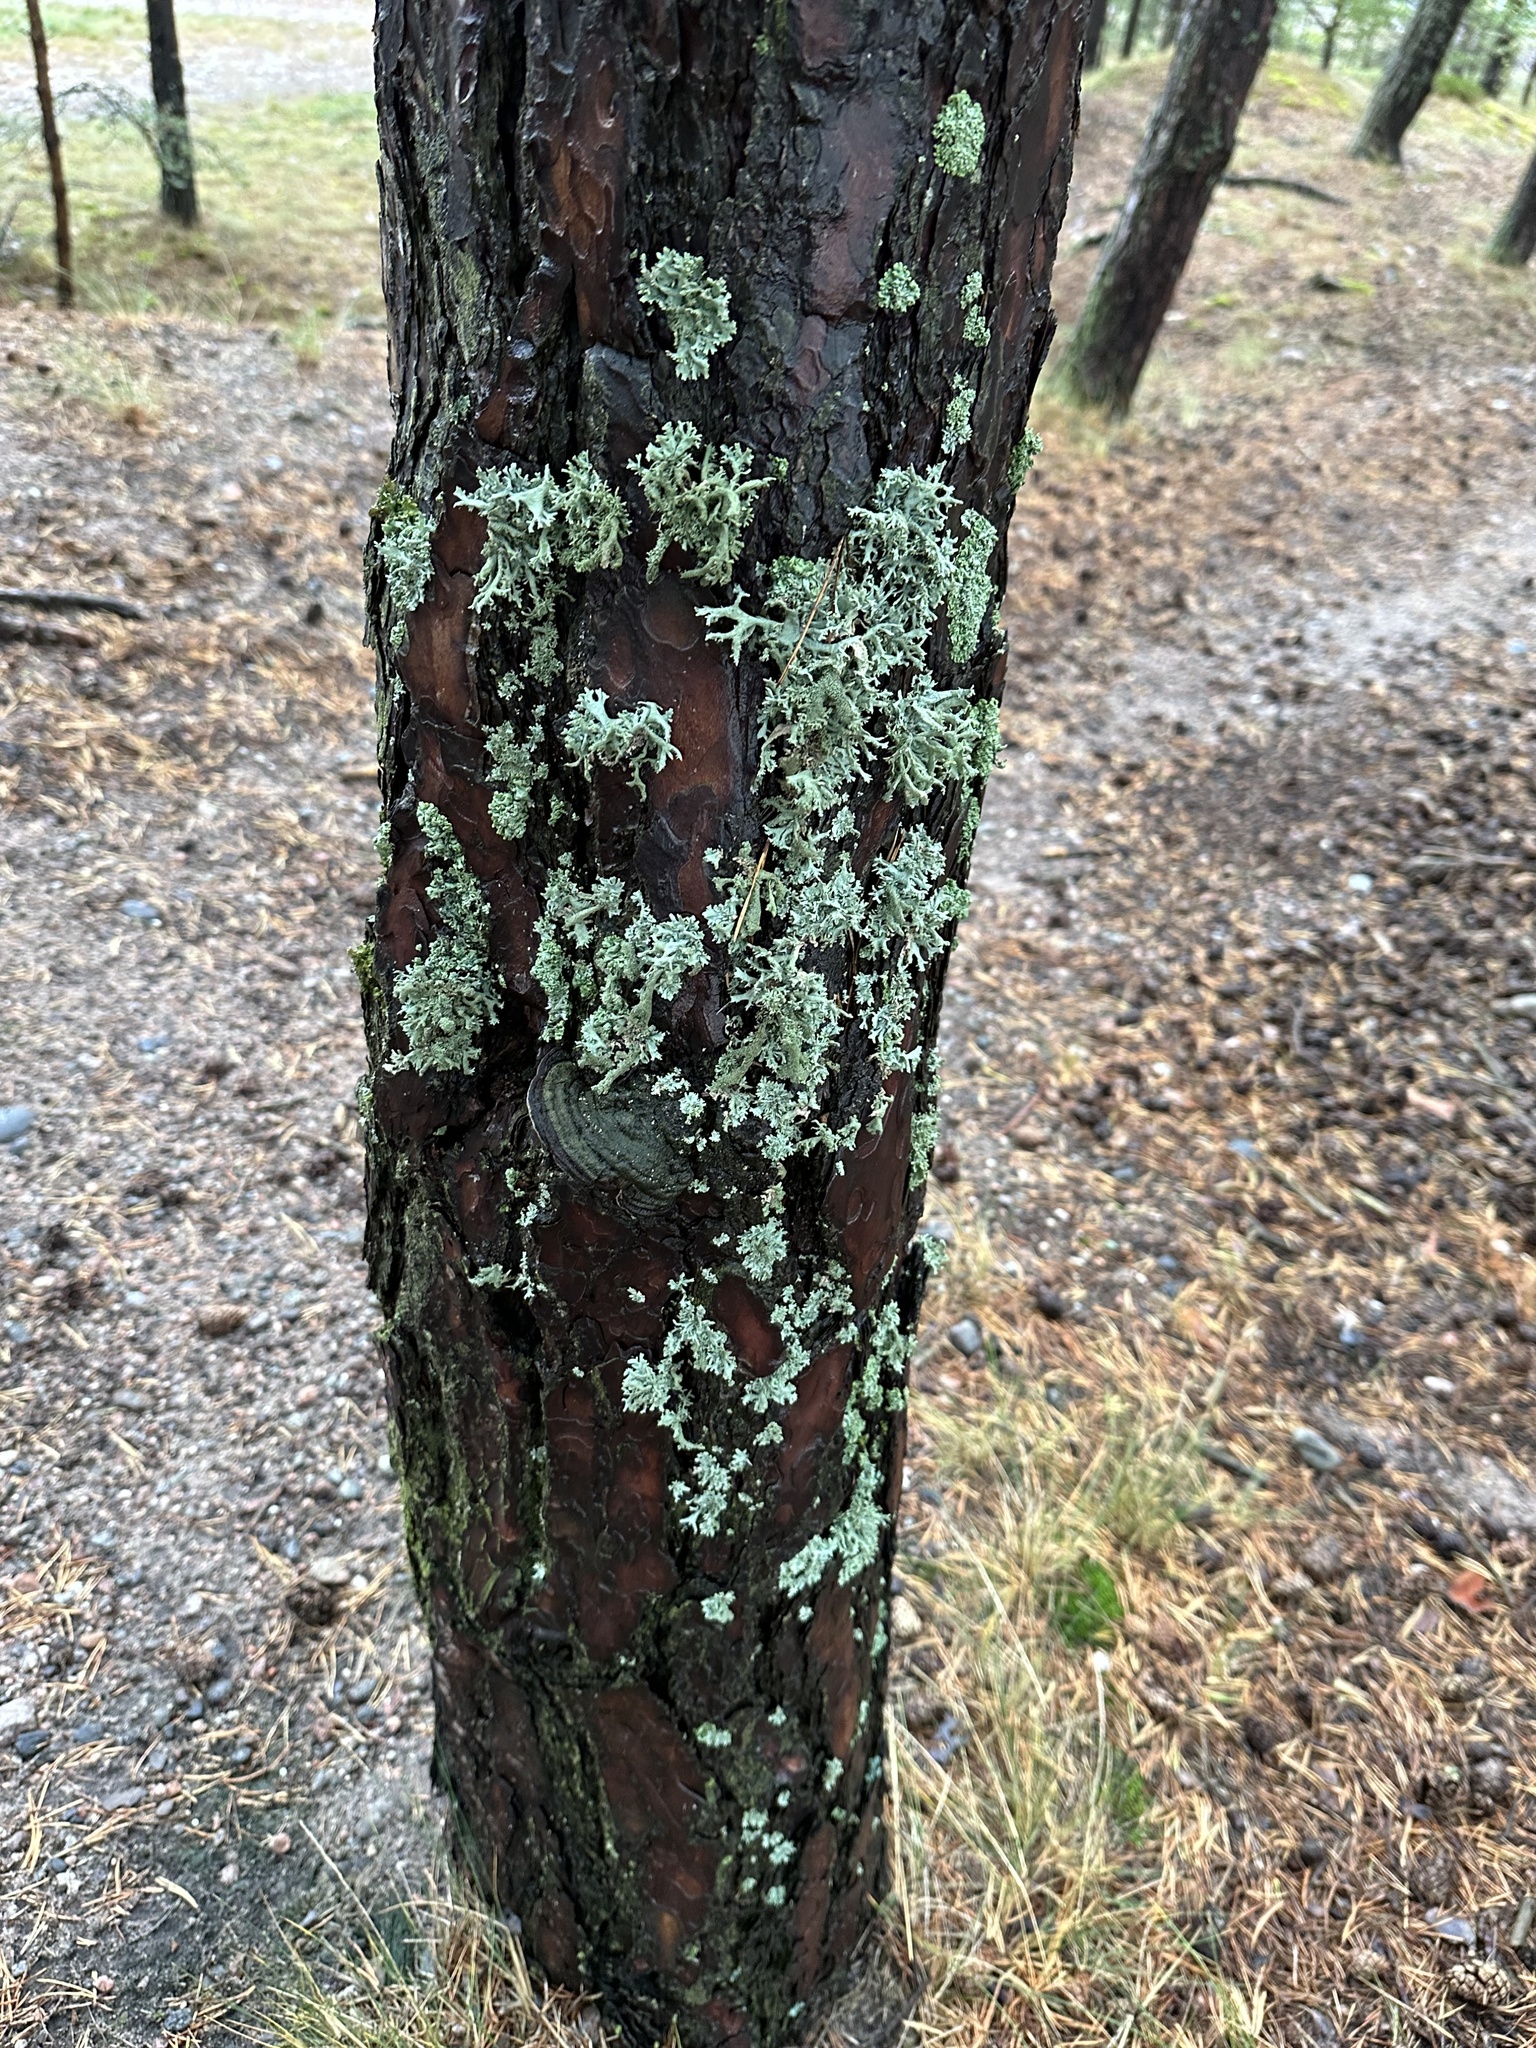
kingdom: Fungi
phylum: Basidiomycota
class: Agaricomycetes
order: Hymenochaetales
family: Hymenochaetaceae
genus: Porodaedalea
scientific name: Porodaedalea pini
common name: Pine bracket
